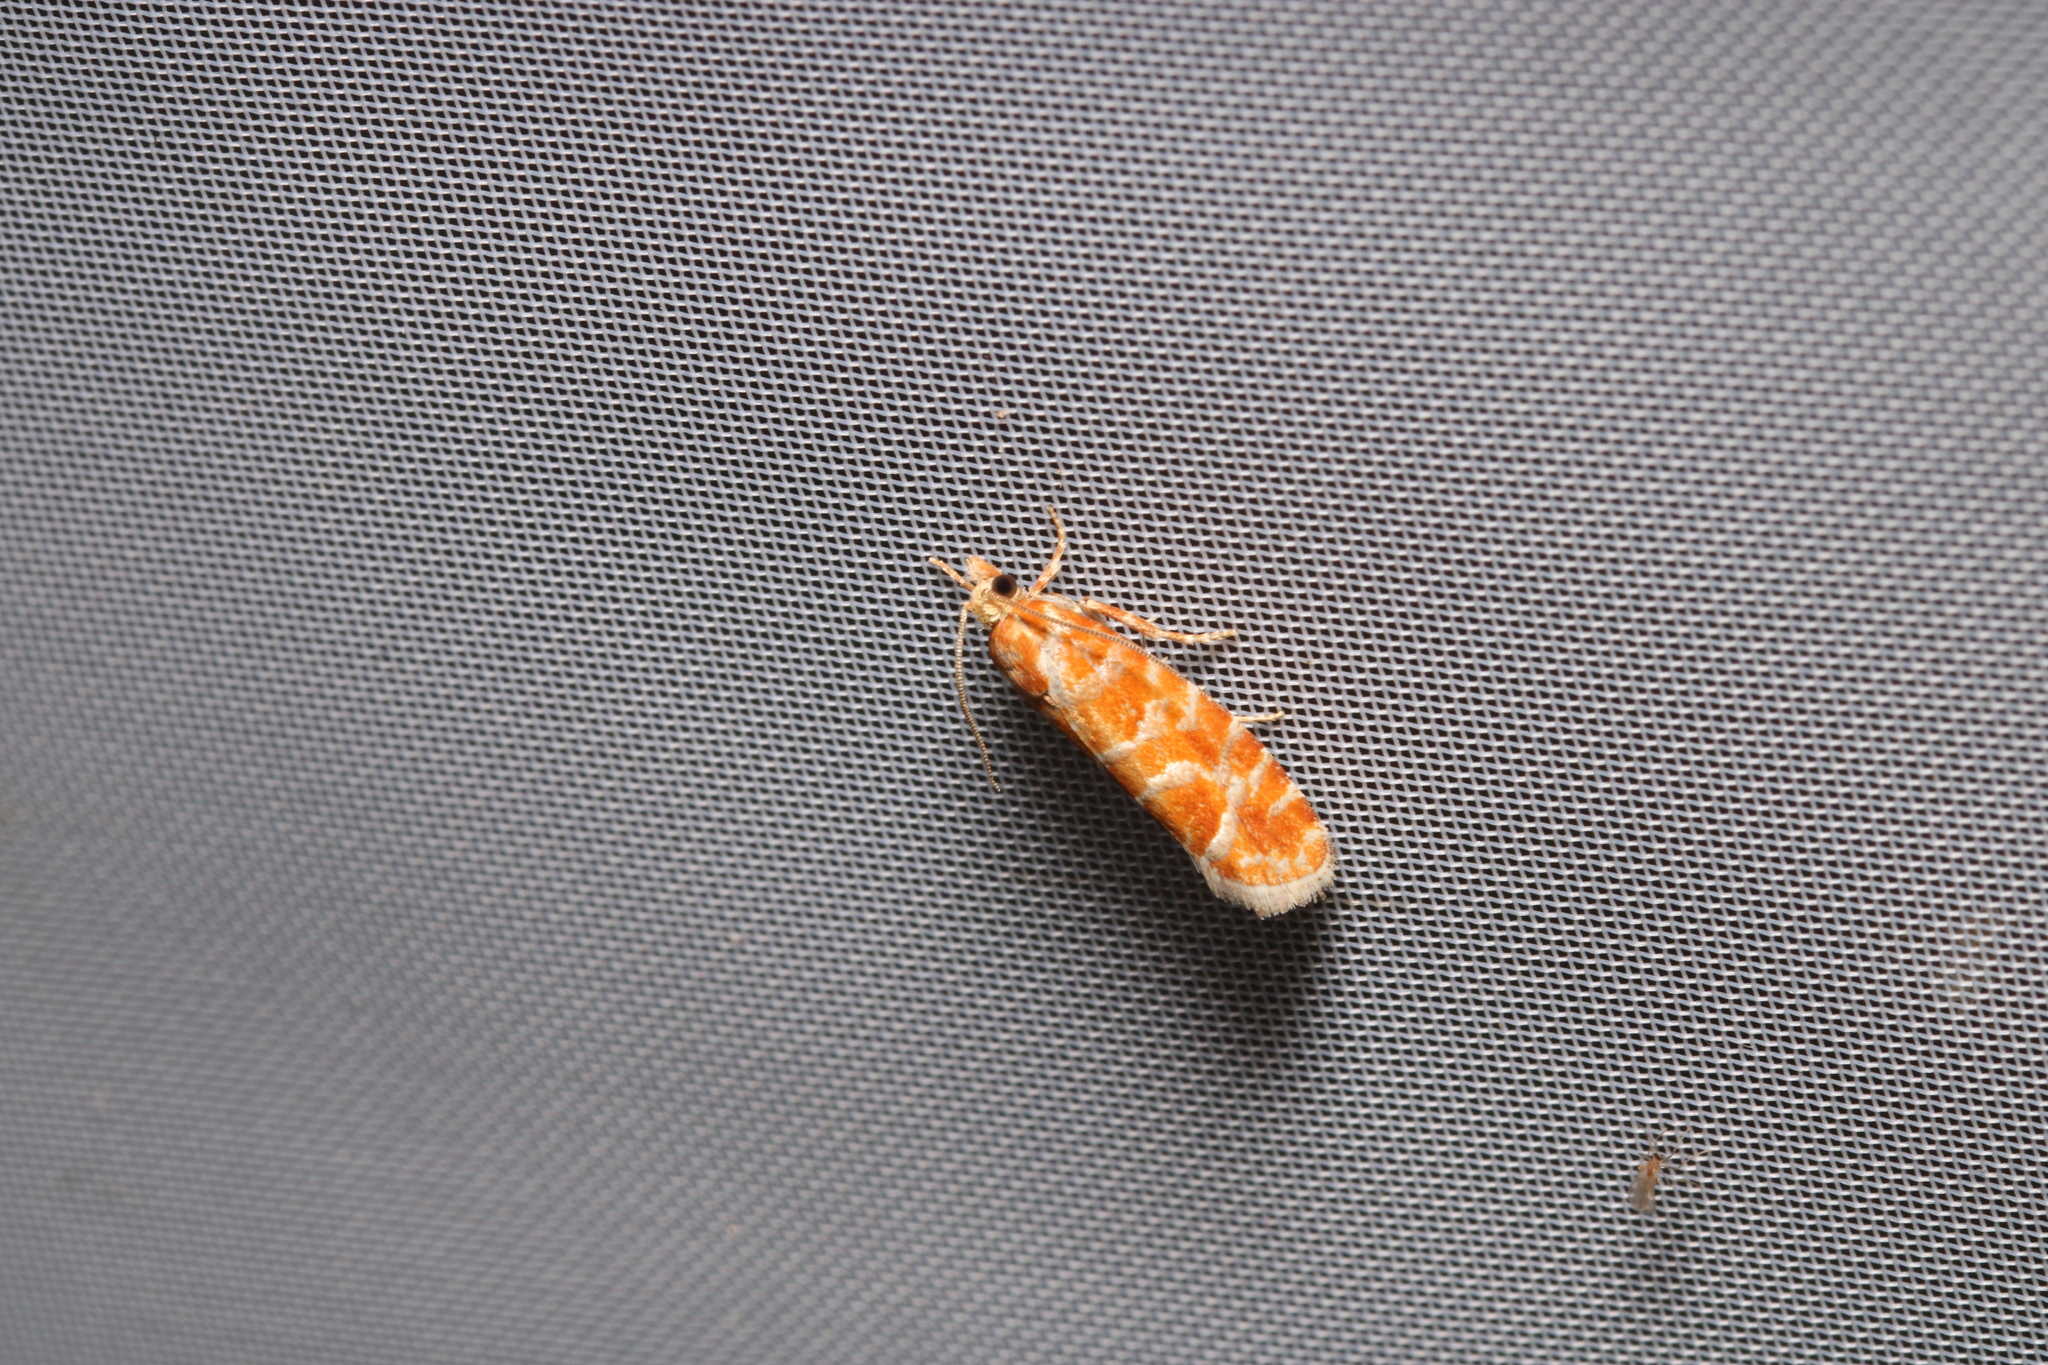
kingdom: Animalia
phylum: Arthropoda
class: Insecta
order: Lepidoptera
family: Tortricidae
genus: Rhyacionia
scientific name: Rhyacionia pinicolana
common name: Orange-spotted shoot
